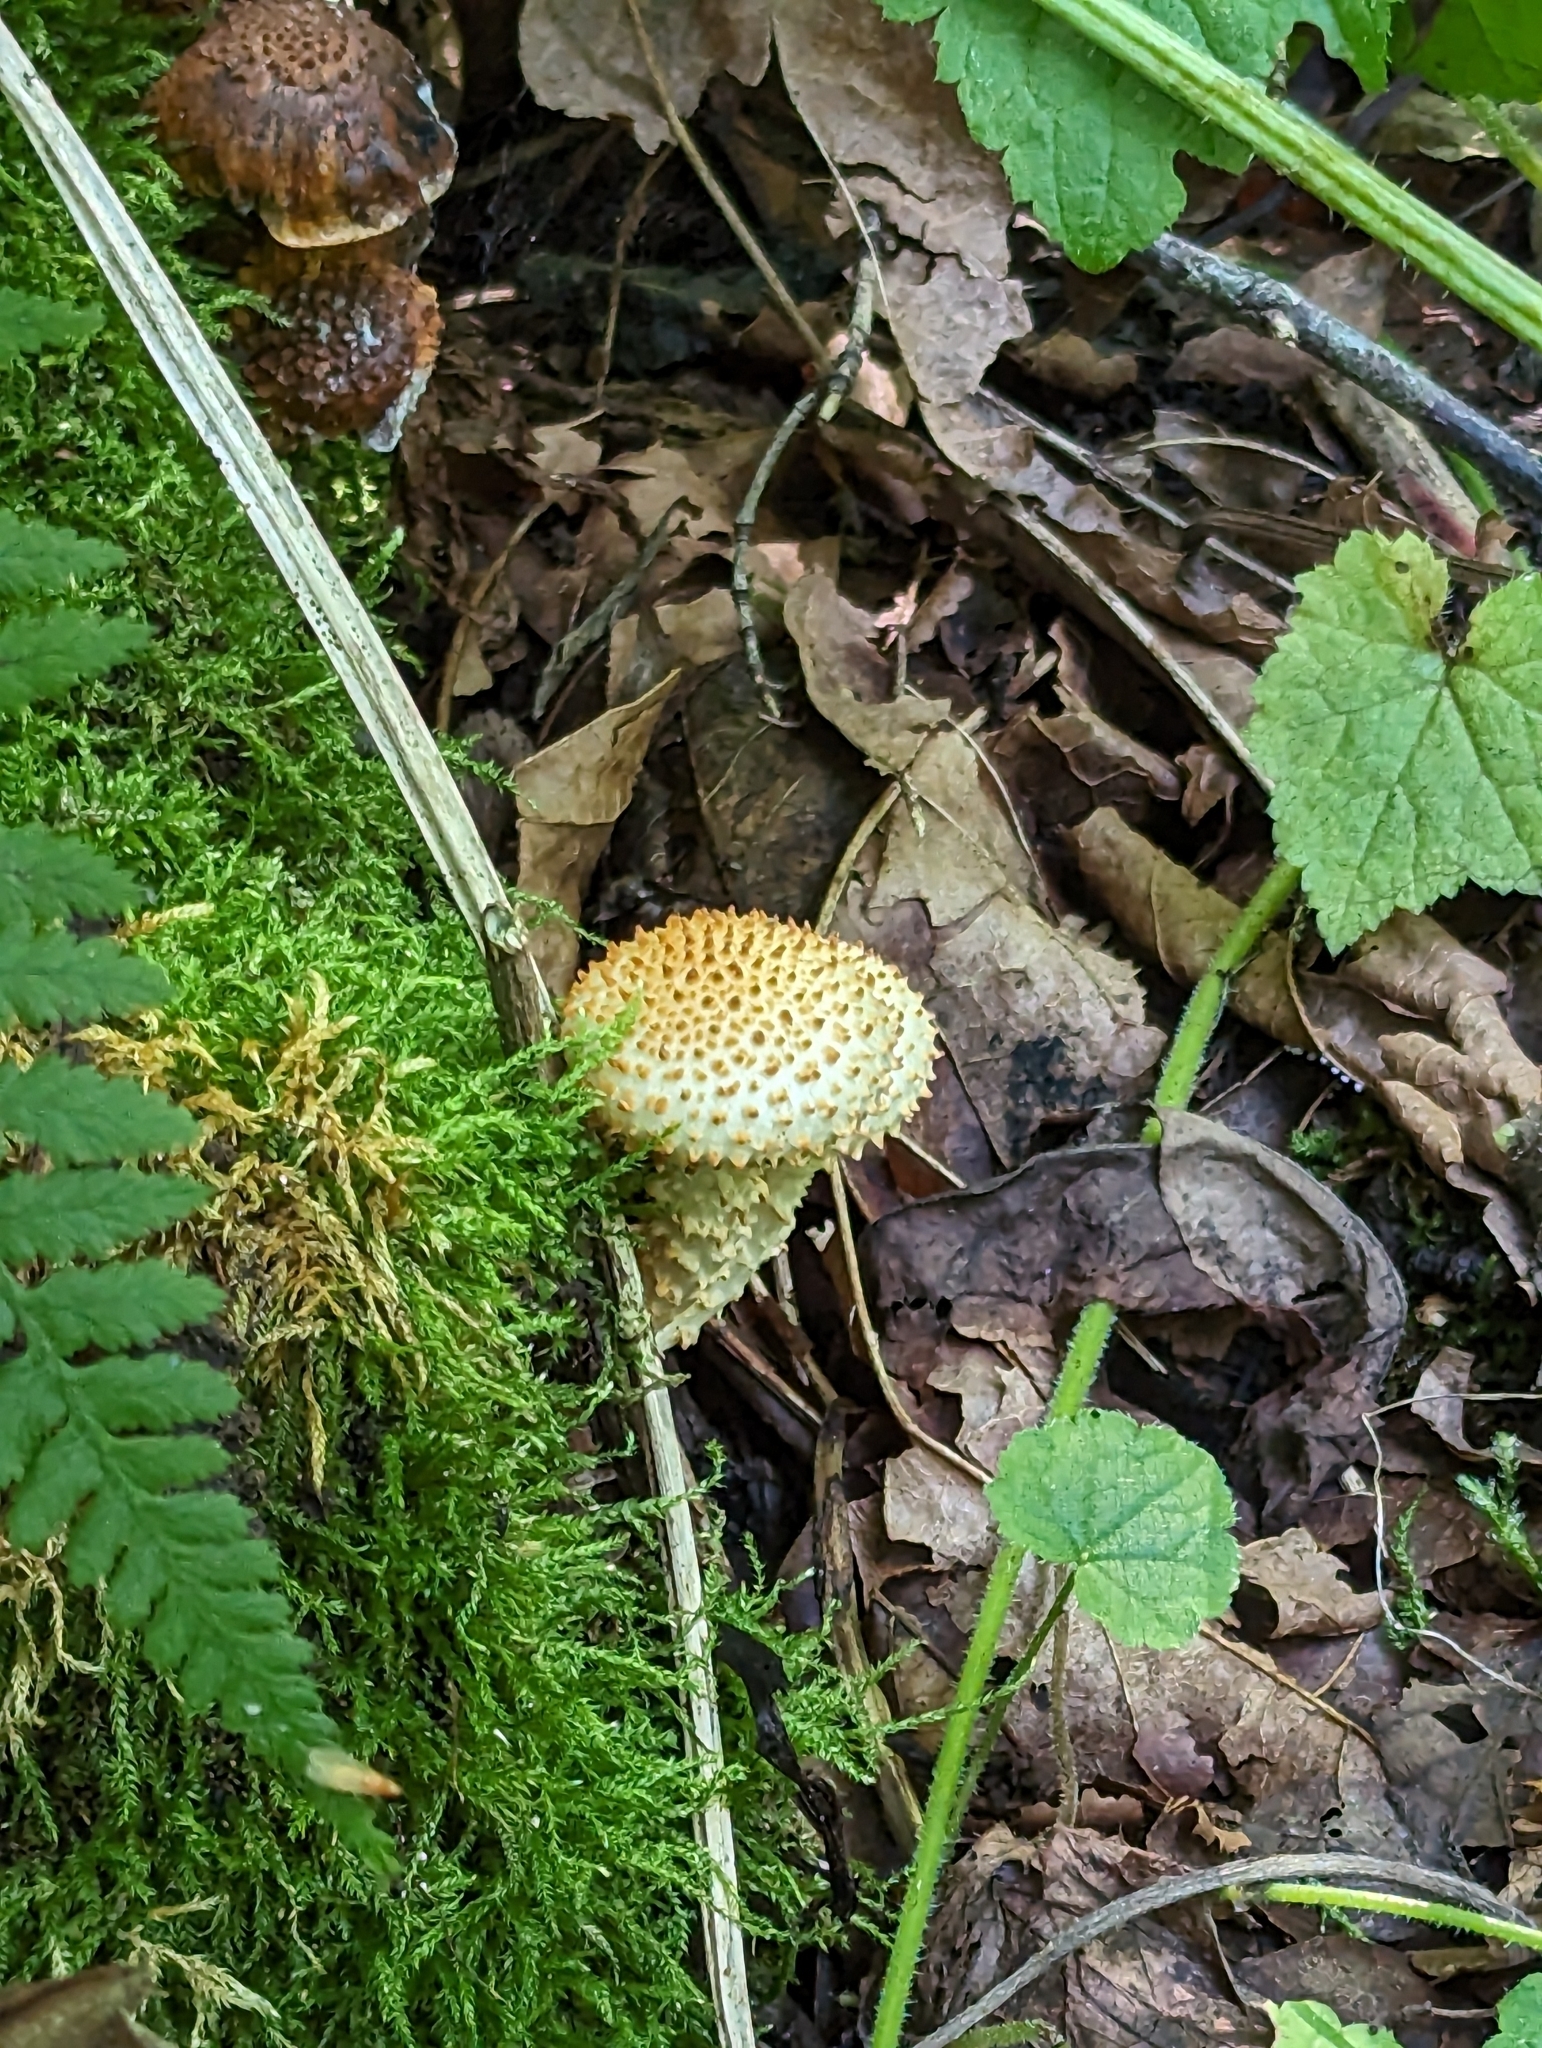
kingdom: Fungi
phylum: Basidiomycota
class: Agaricomycetes
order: Agaricales
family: Strophariaceae
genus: Pholiota
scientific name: Pholiota squarrosoides
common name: Sharp-scaly pholiota
